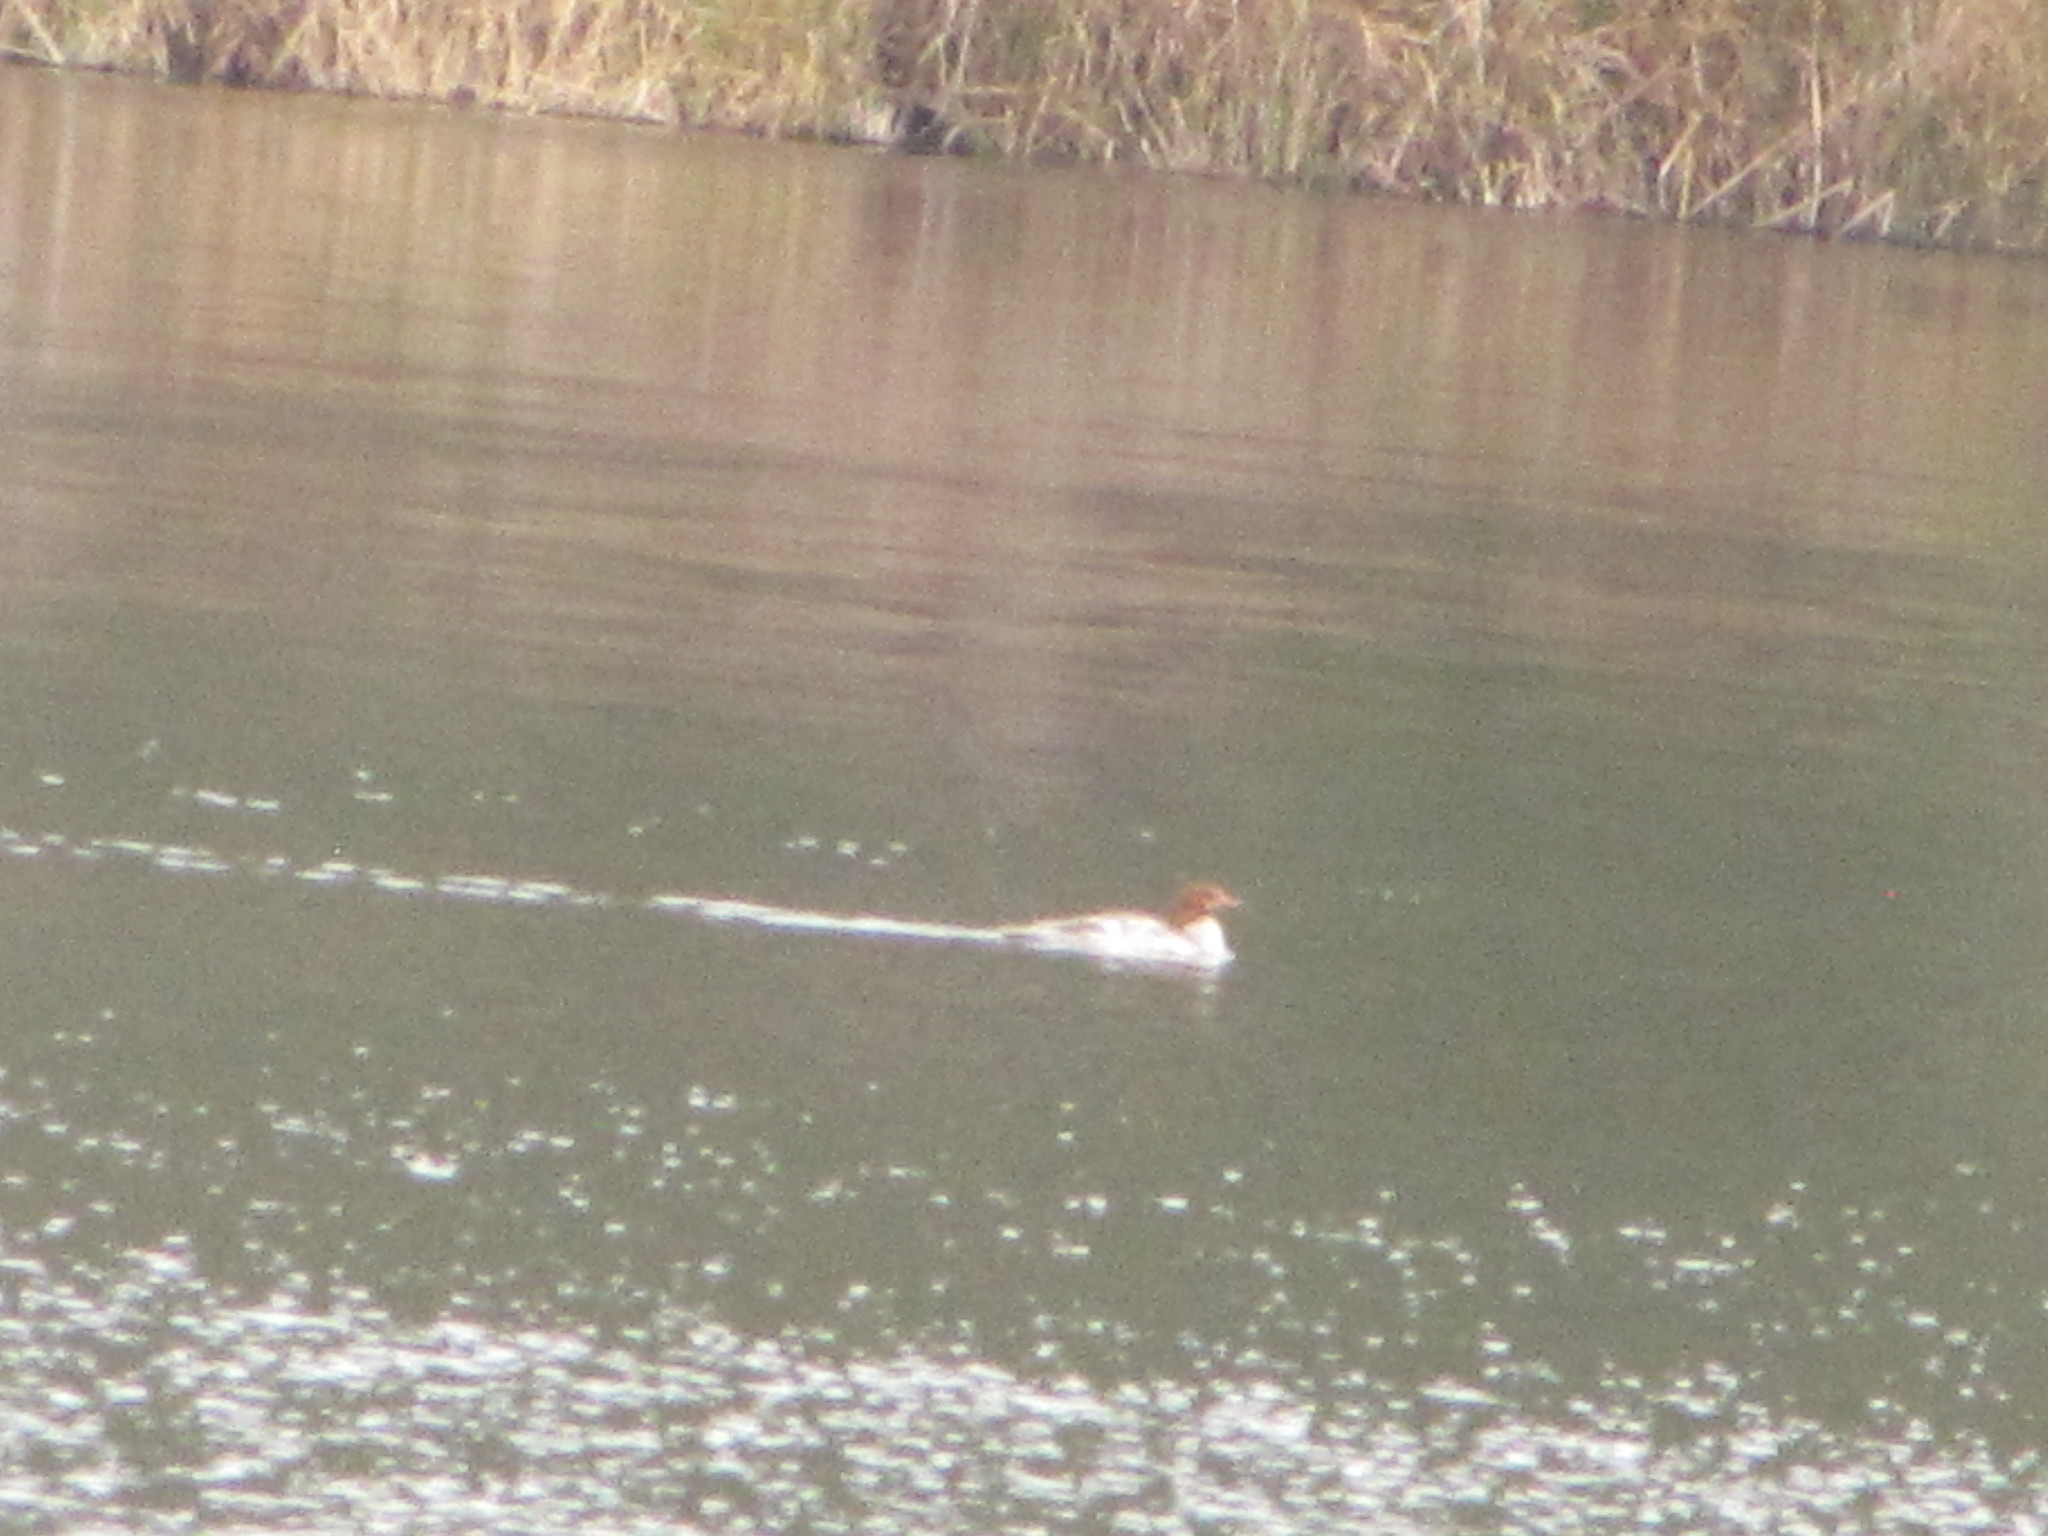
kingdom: Animalia
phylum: Chordata
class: Aves
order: Anseriformes
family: Anatidae
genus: Mergus
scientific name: Mergus merganser
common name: Common merganser
